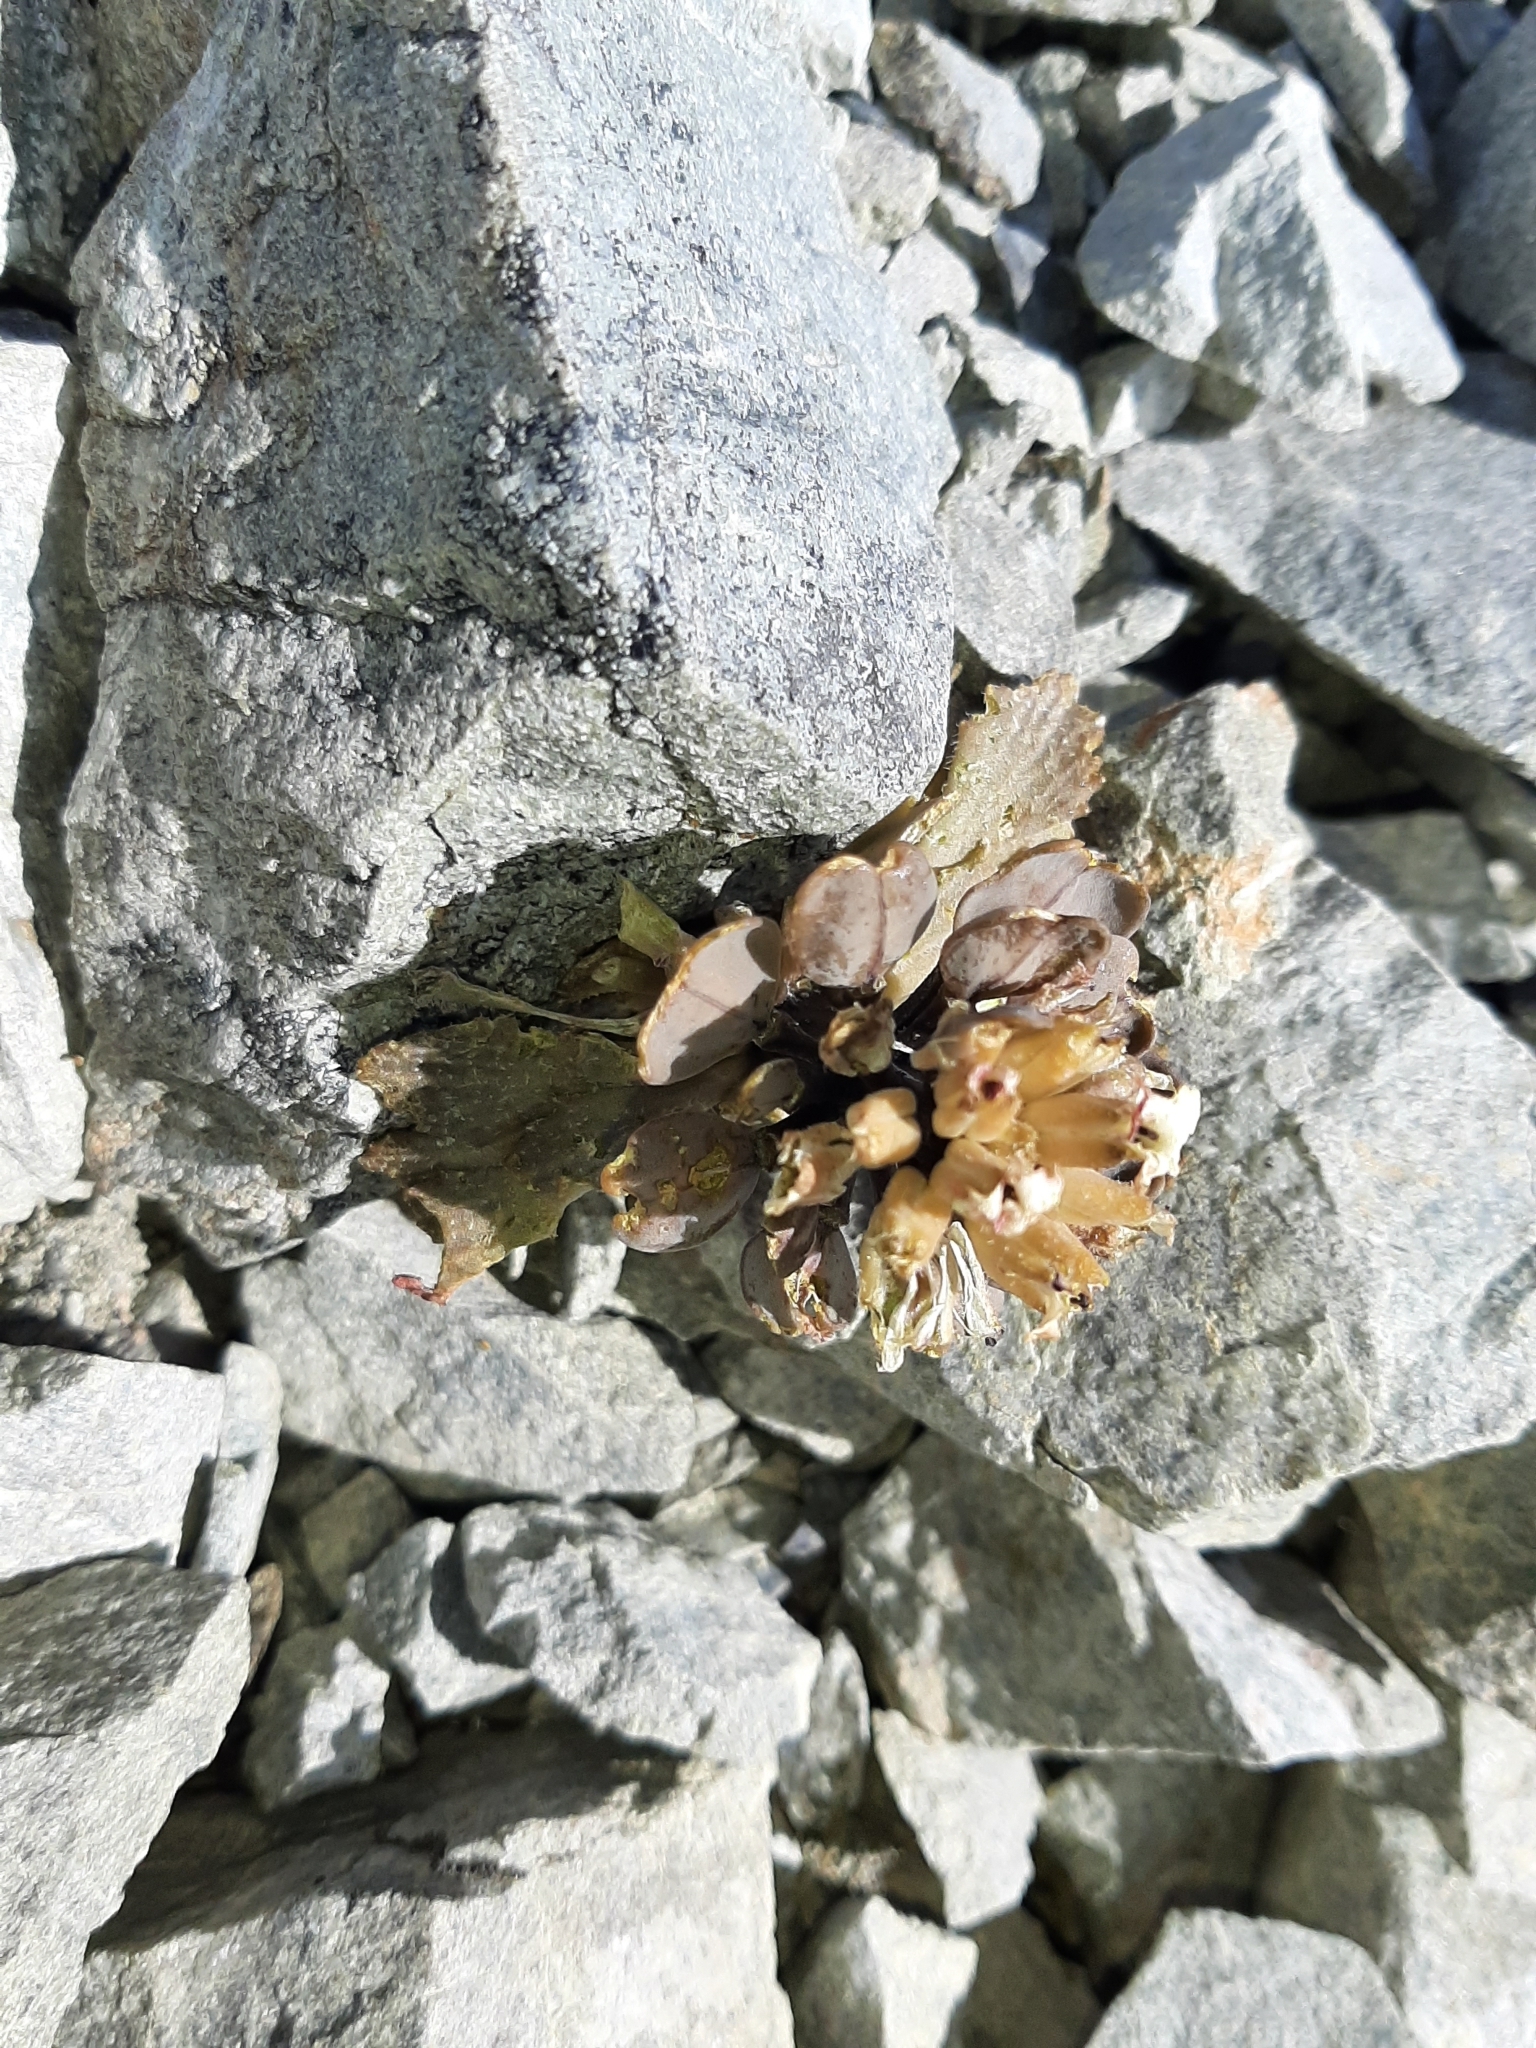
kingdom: Plantae
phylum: Tracheophyta
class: Magnoliopsida
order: Brassicales
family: Brassicaceae
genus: Notothlaspi
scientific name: Notothlaspi rosulatum
